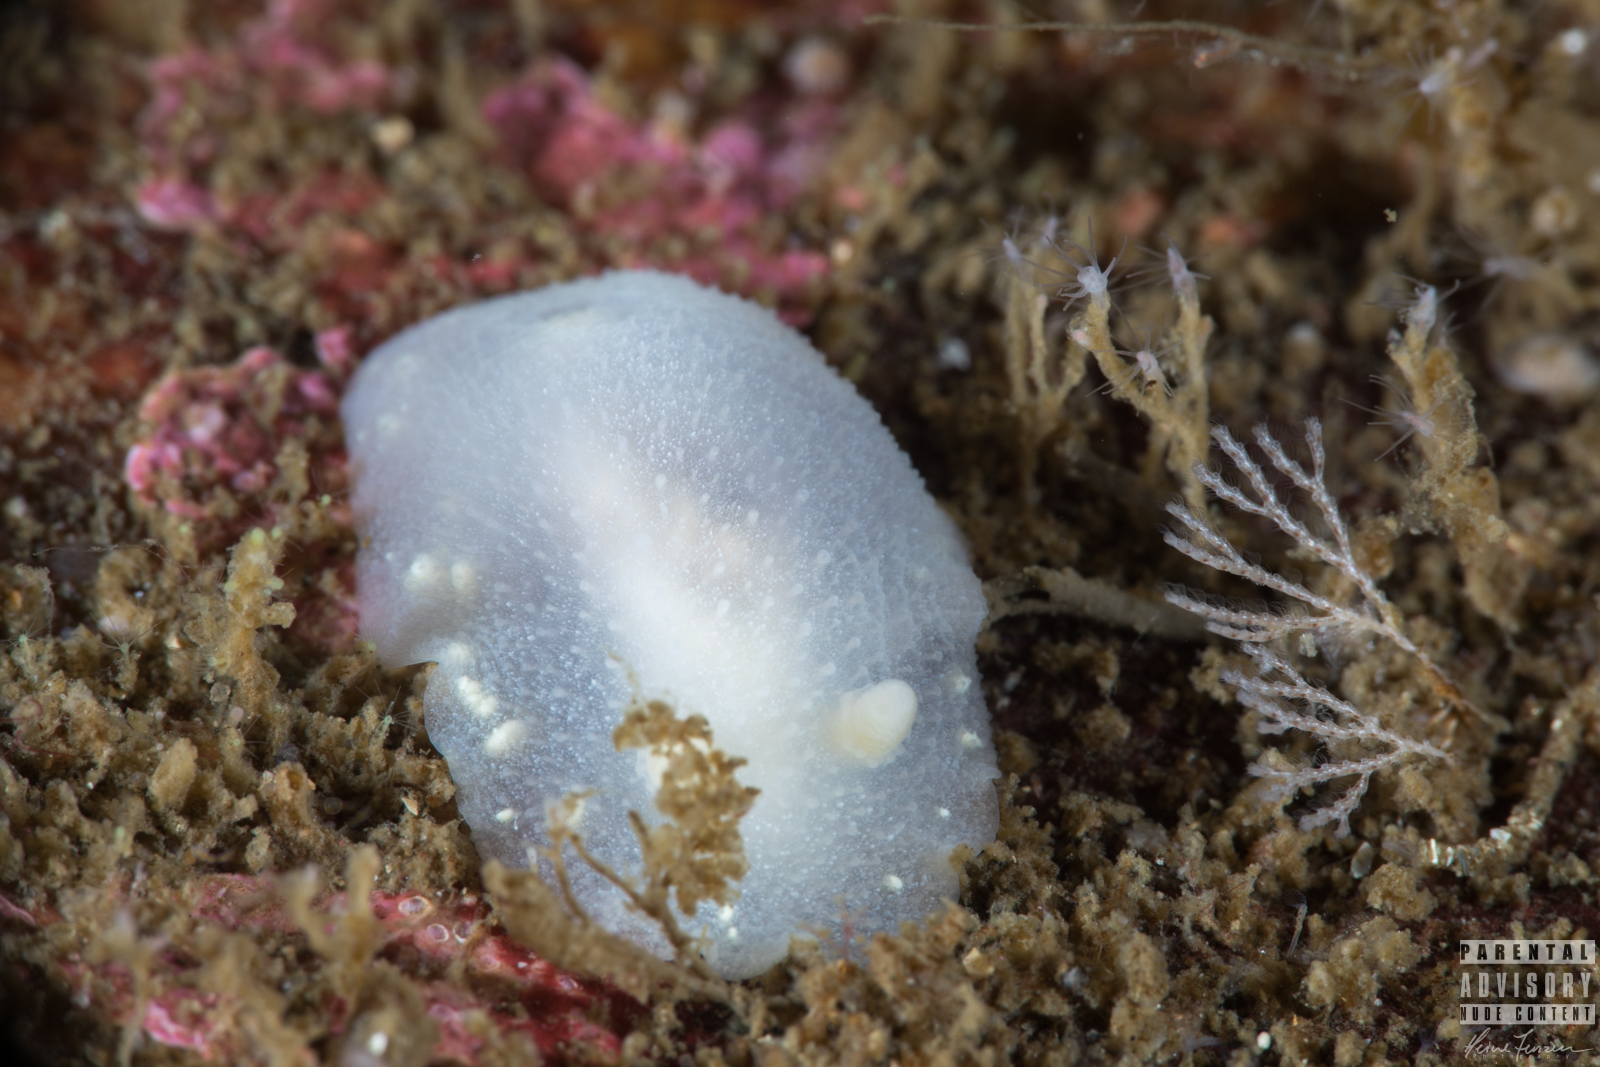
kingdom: Animalia
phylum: Mollusca
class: Gastropoda
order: Nudibranchia
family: Cadlinidae
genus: Cadlina
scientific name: Cadlina laevis
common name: White atlantic cadlina
